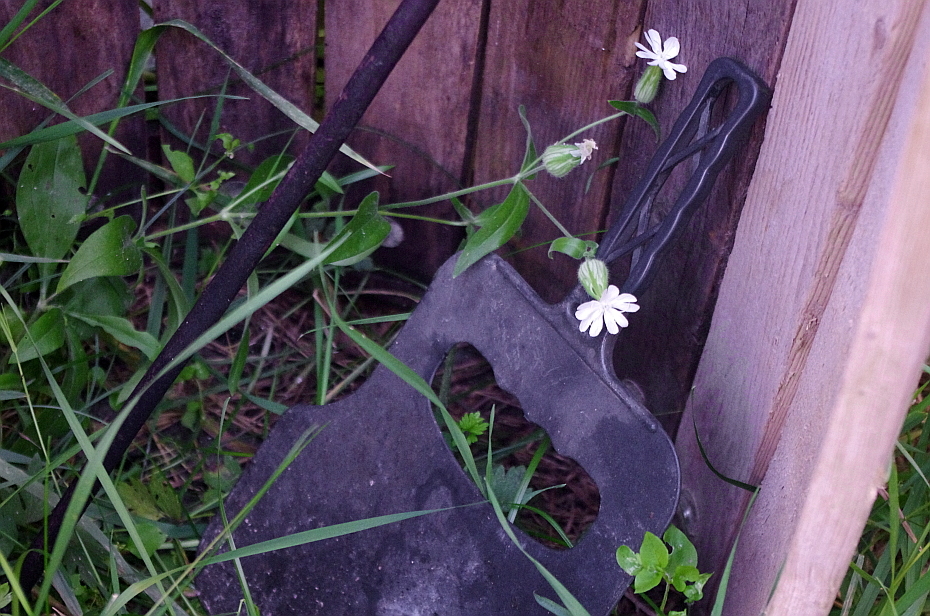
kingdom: Plantae
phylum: Tracheophyta
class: Magnoliopsida
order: Caryophyllales
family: Caryophyllaceae
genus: Silene
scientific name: Silene latifolia
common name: White campion
